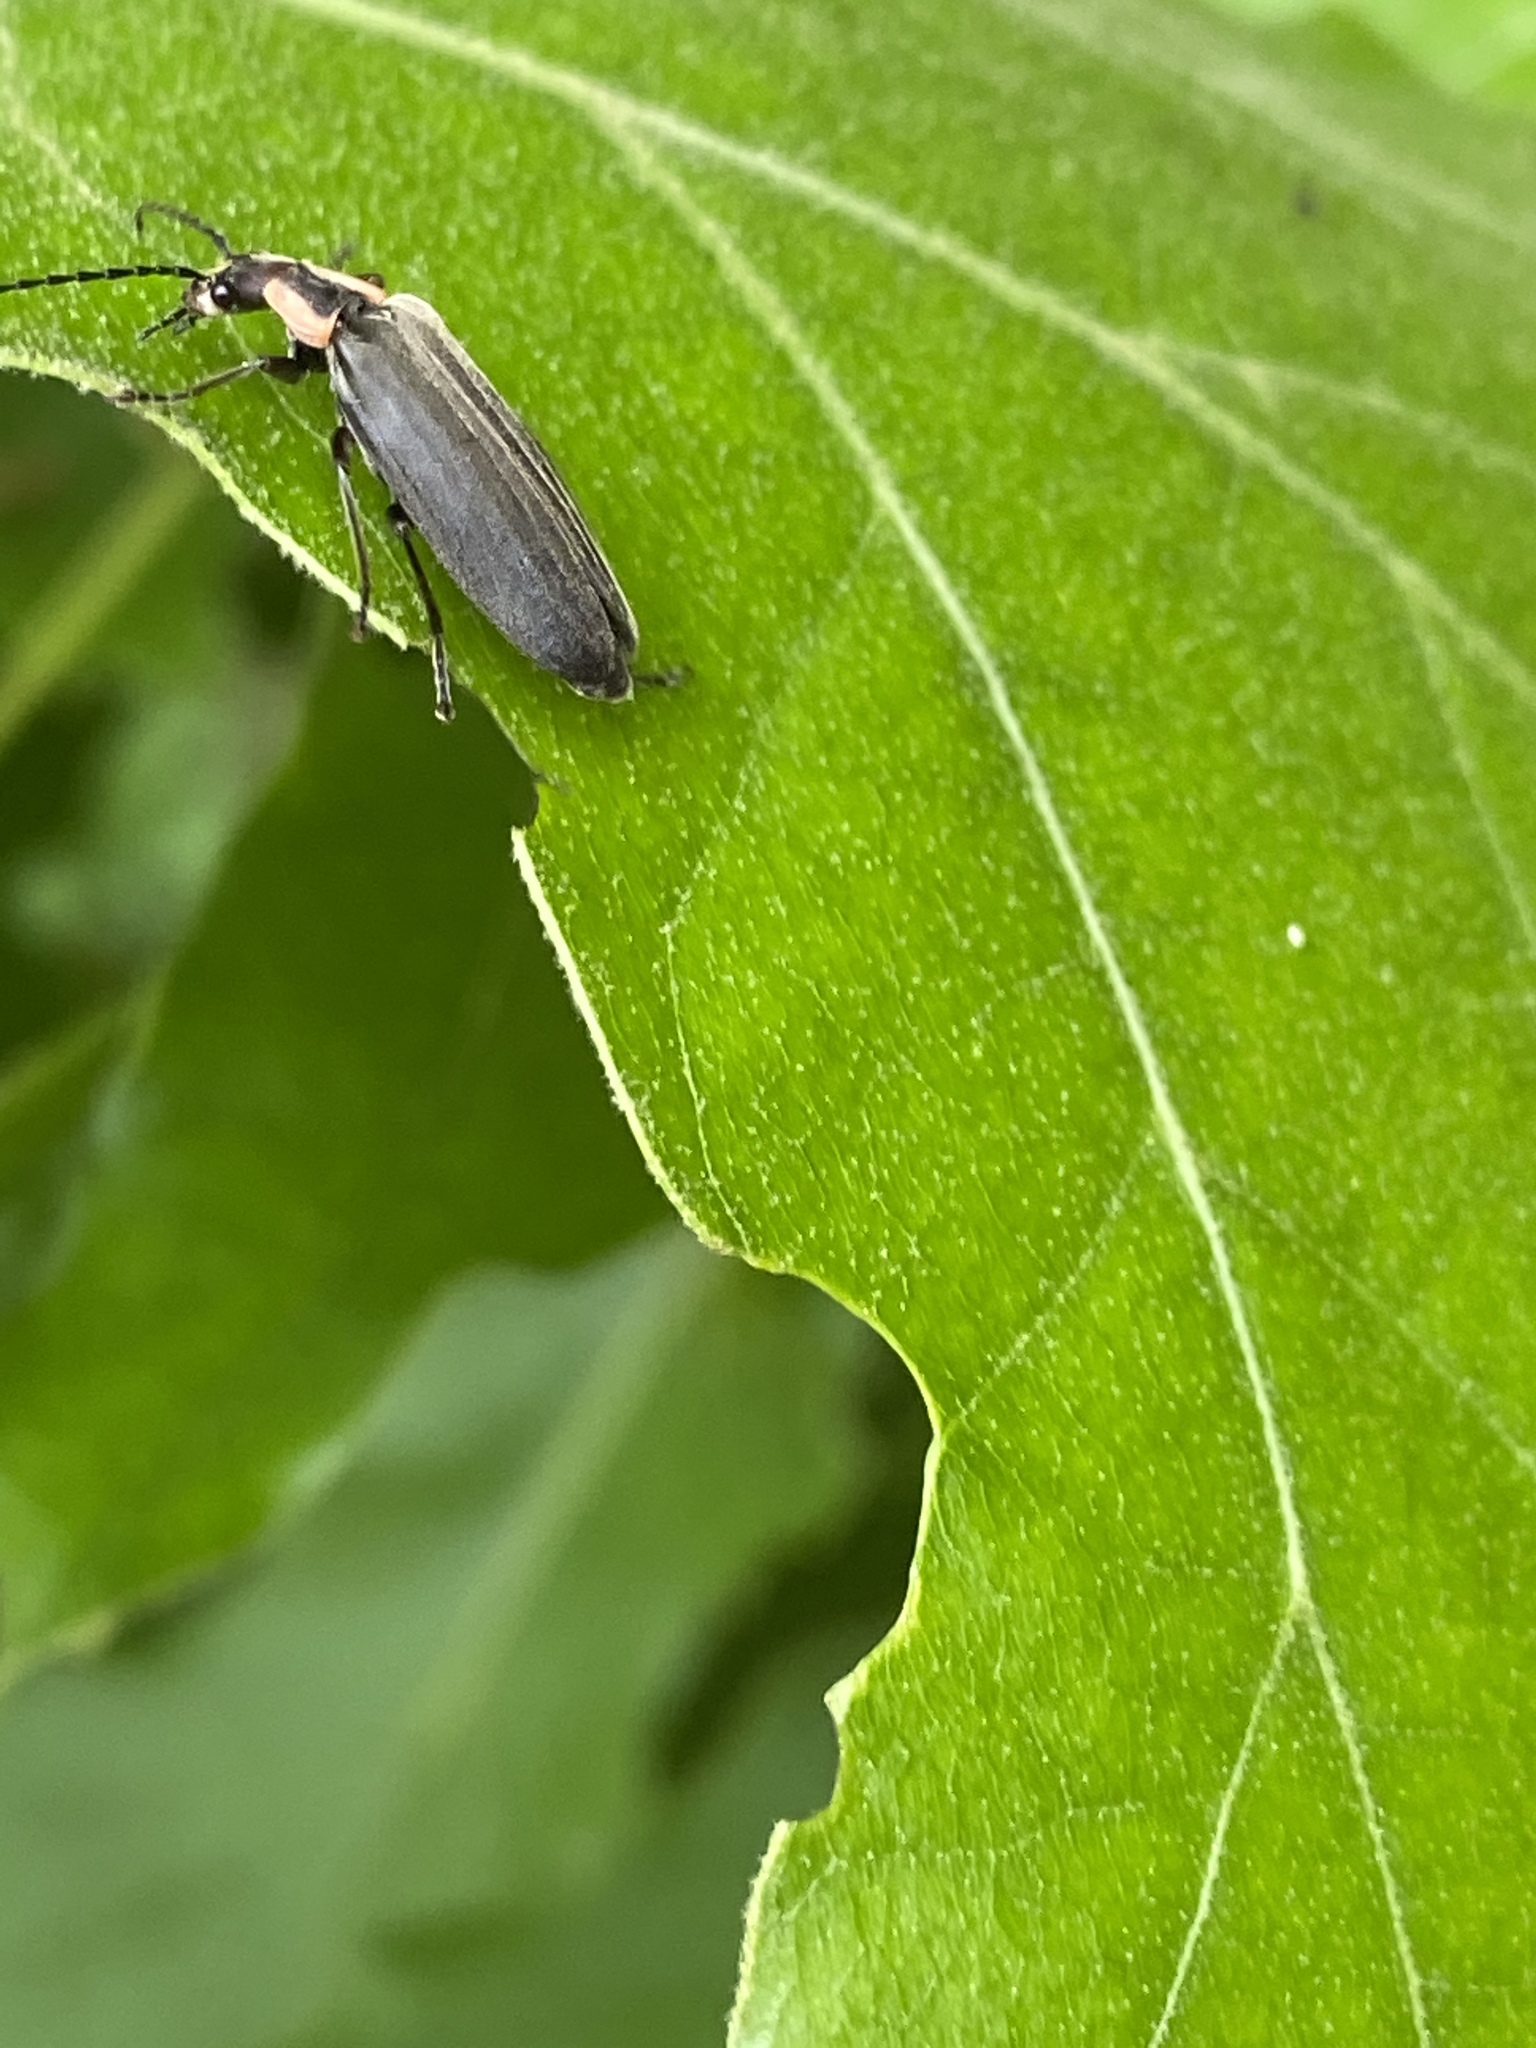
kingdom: Animalia
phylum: Arthropoda
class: Insecta
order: Coleoptera
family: Cantharidae
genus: Podabrus
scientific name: Podabrus tricostatus
